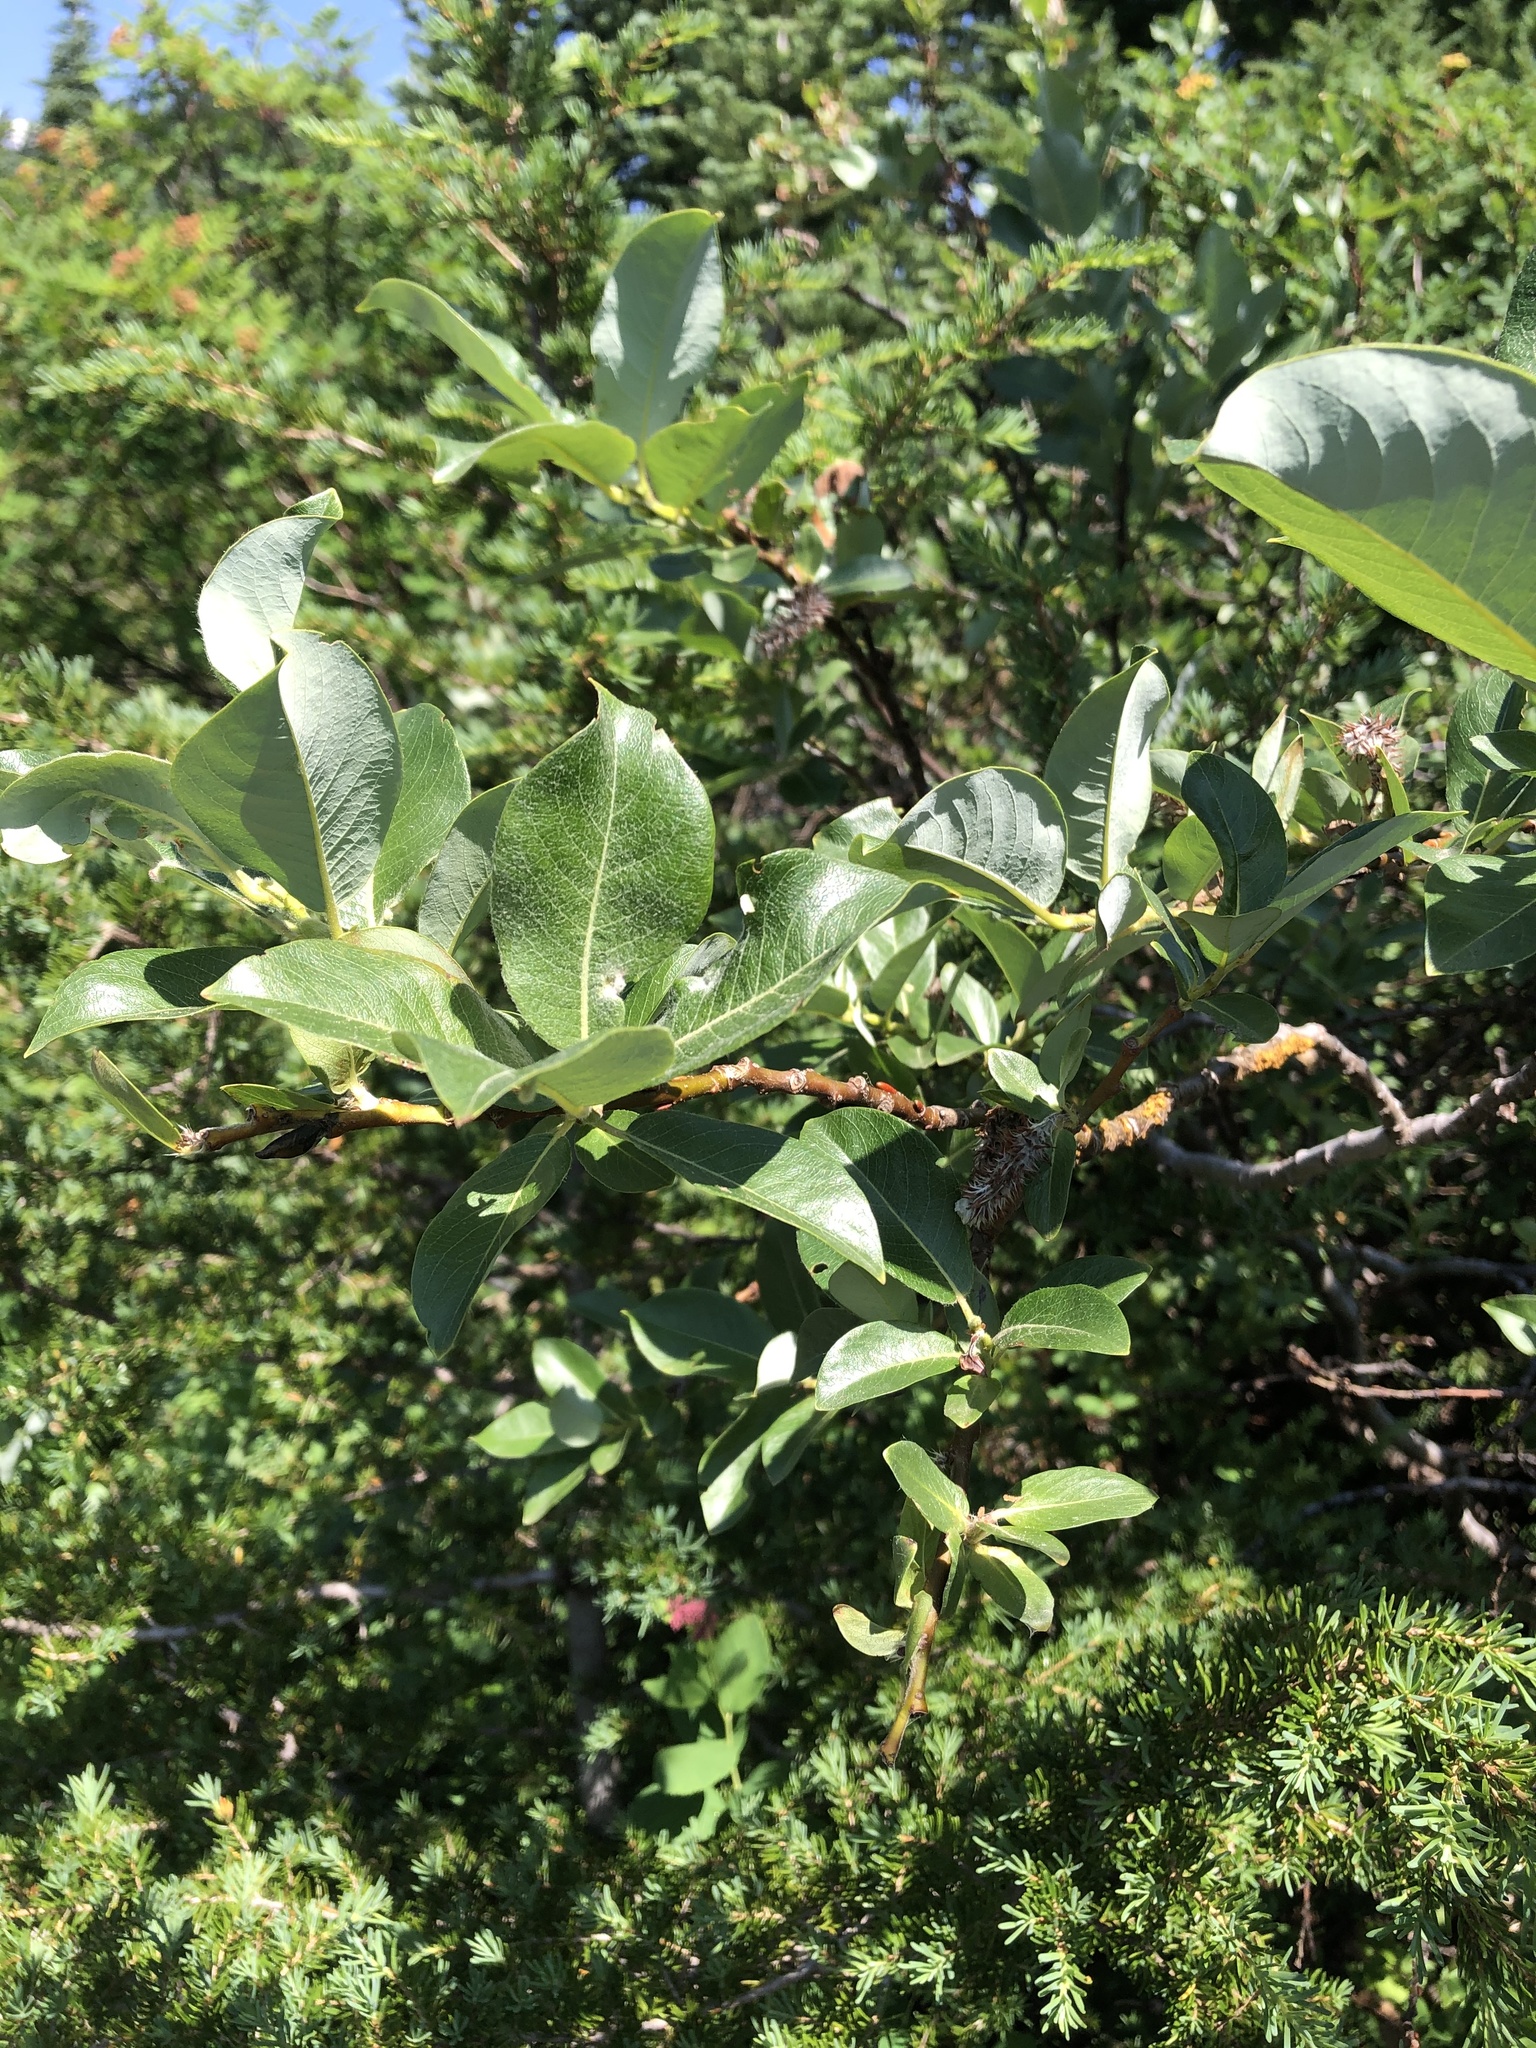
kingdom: Plantae
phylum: Tracheophyta
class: Magnoliopsida
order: Malpighiales
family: Salicaceae
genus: Salix
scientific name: Salix barclayi
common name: Mountain willow
